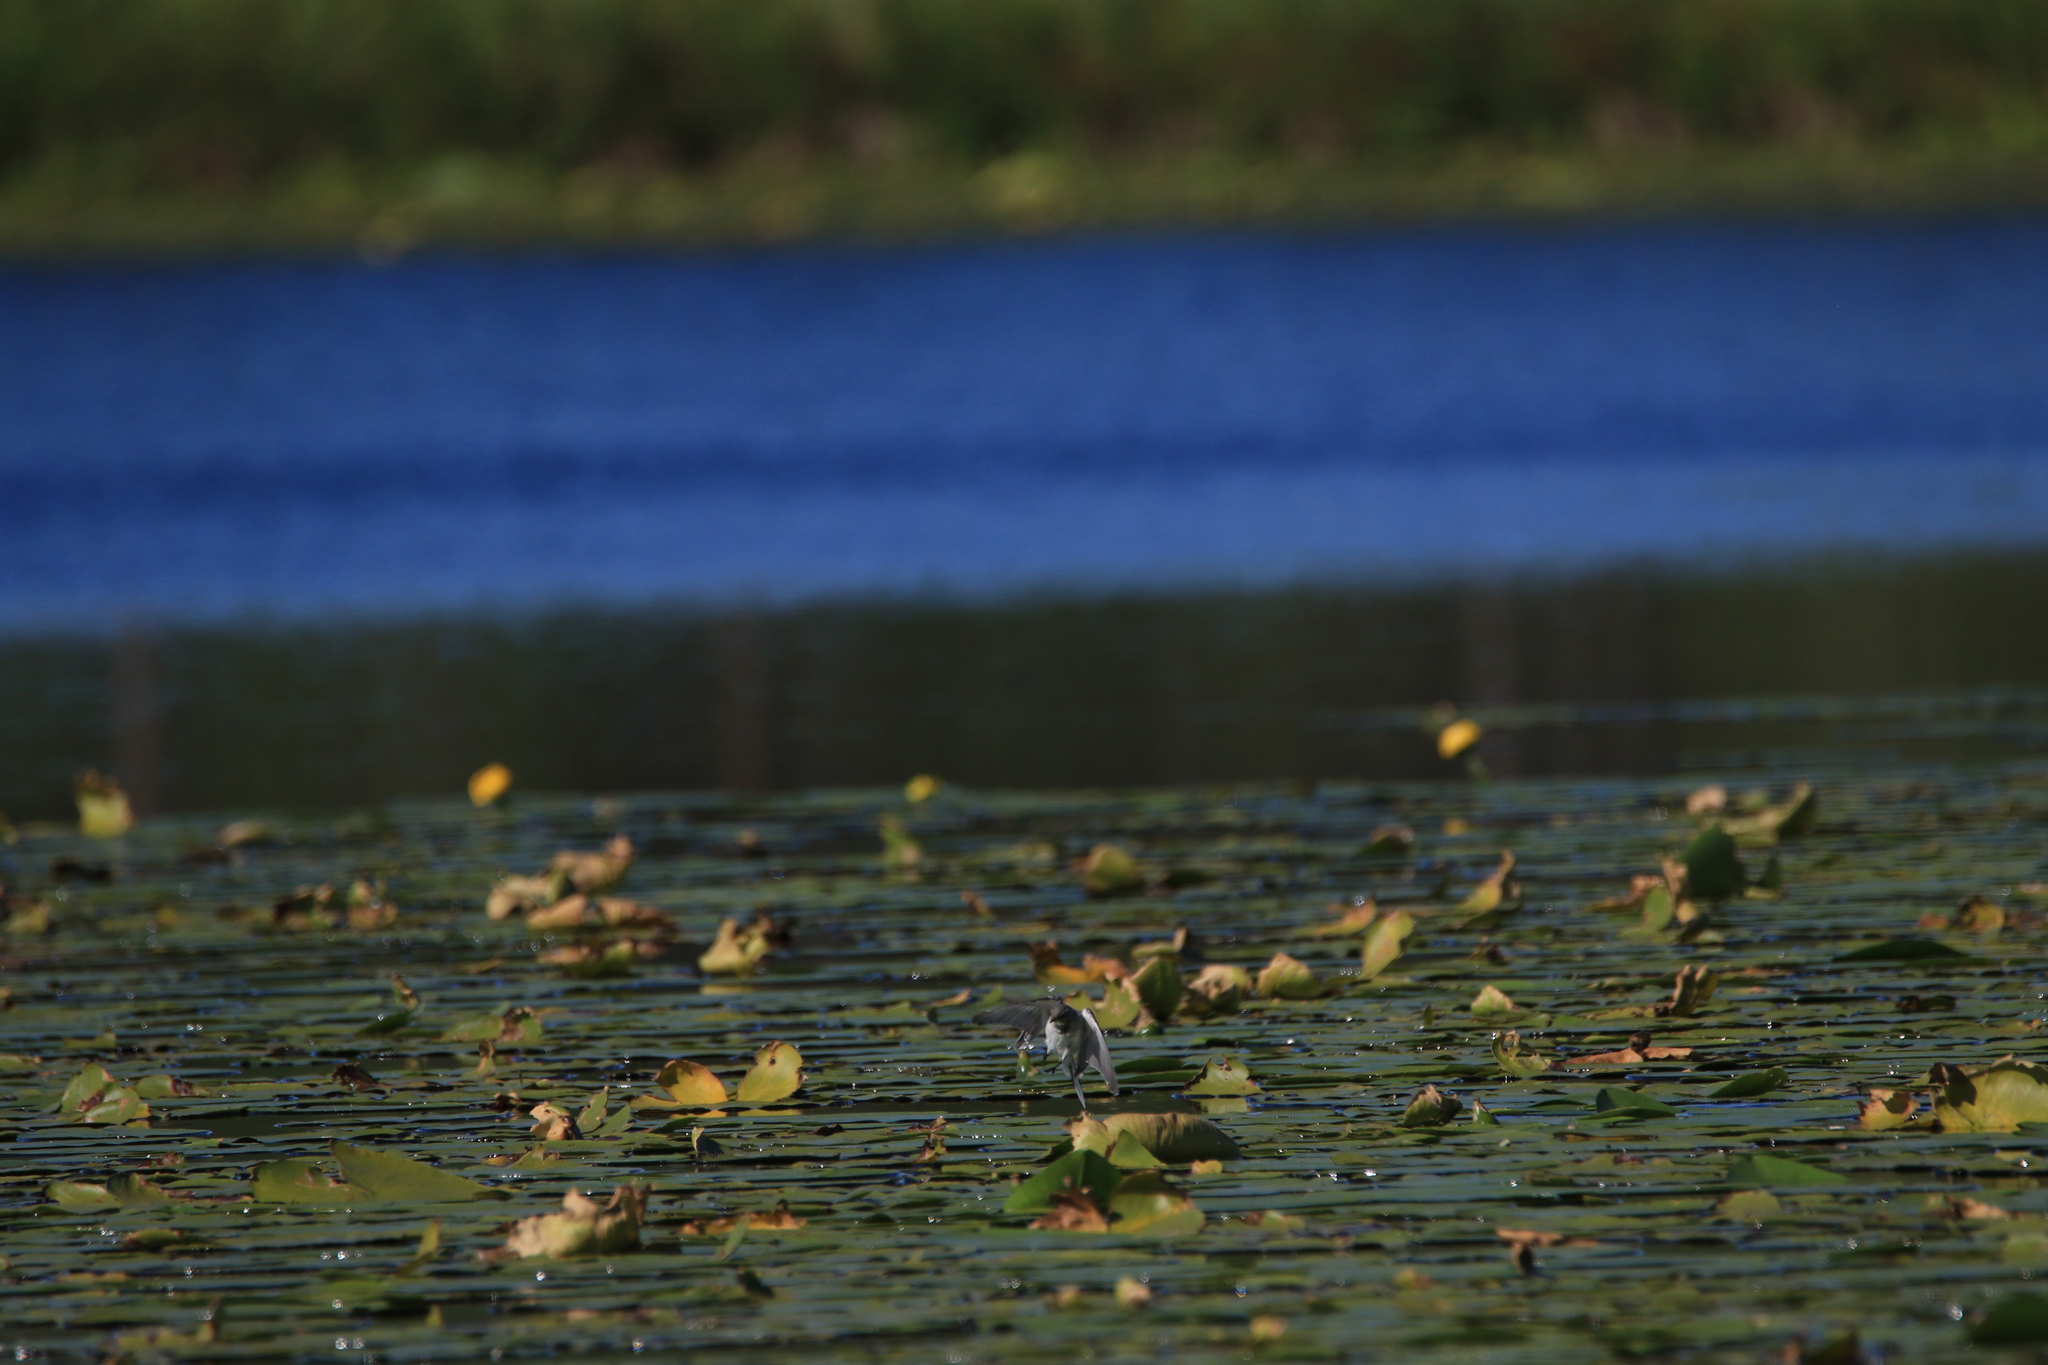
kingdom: Animalia
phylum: Chordata
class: Aves
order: Passeriformes
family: Motacillidae
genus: Motacilla
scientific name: Motacilla alba
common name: White wagtail
